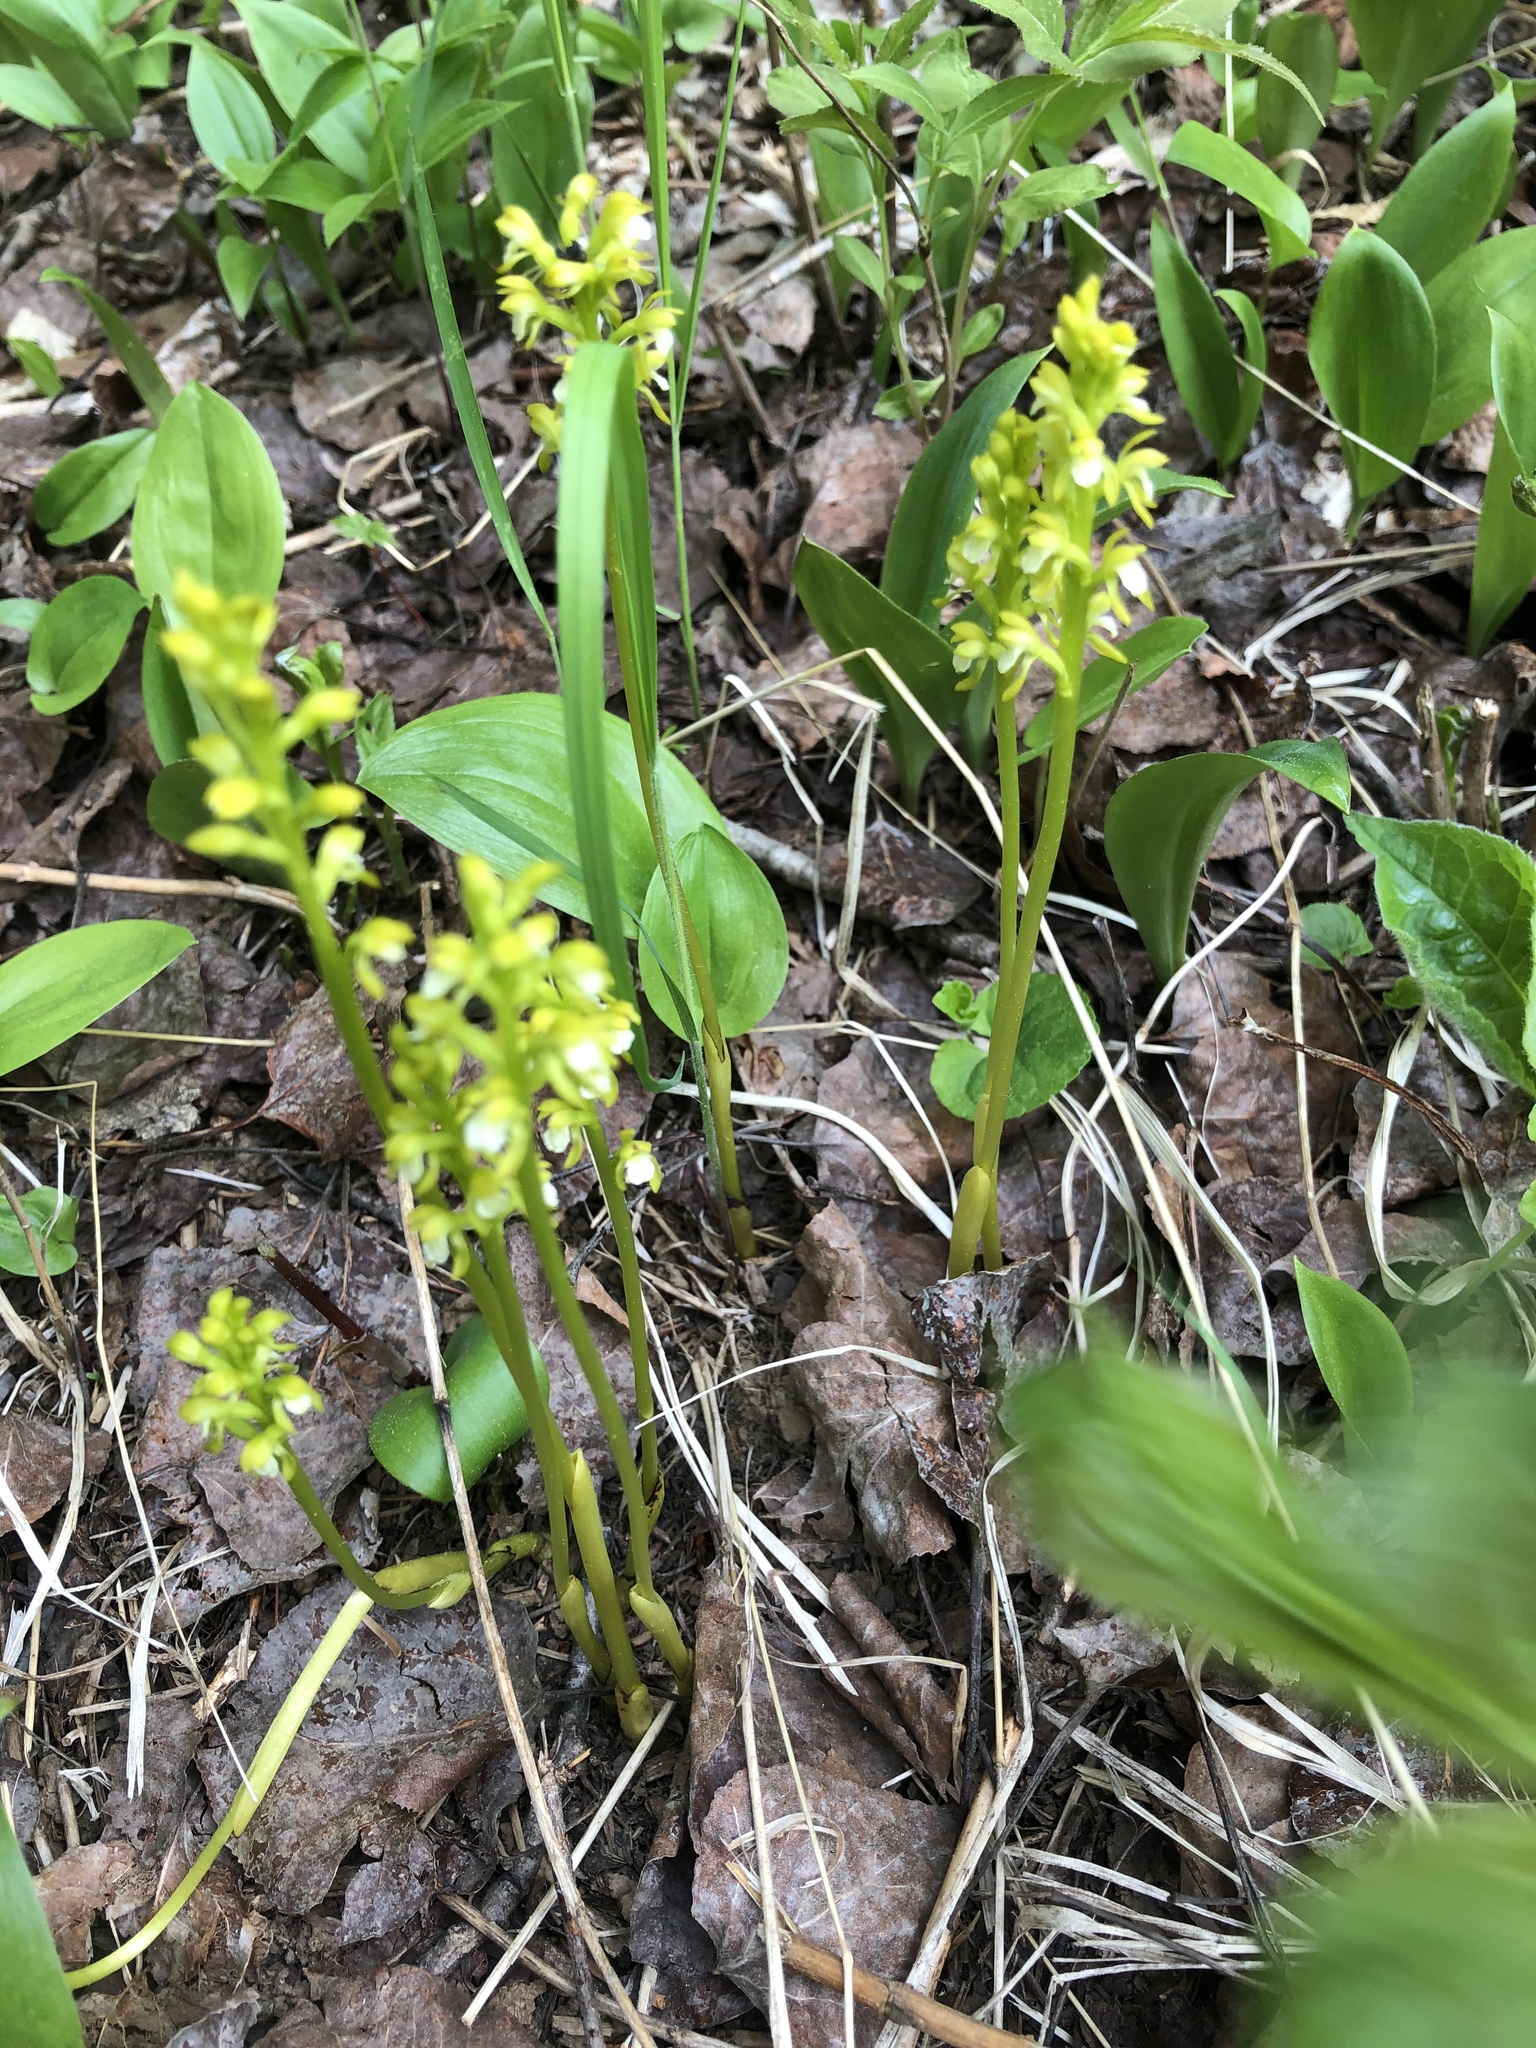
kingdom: Plantae
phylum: Tracheophyta
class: Liliopsida
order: Asparagales
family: Orchidaceae
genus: Corallorhiza
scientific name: Corallorhiza trifida
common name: Yellow coralroot
